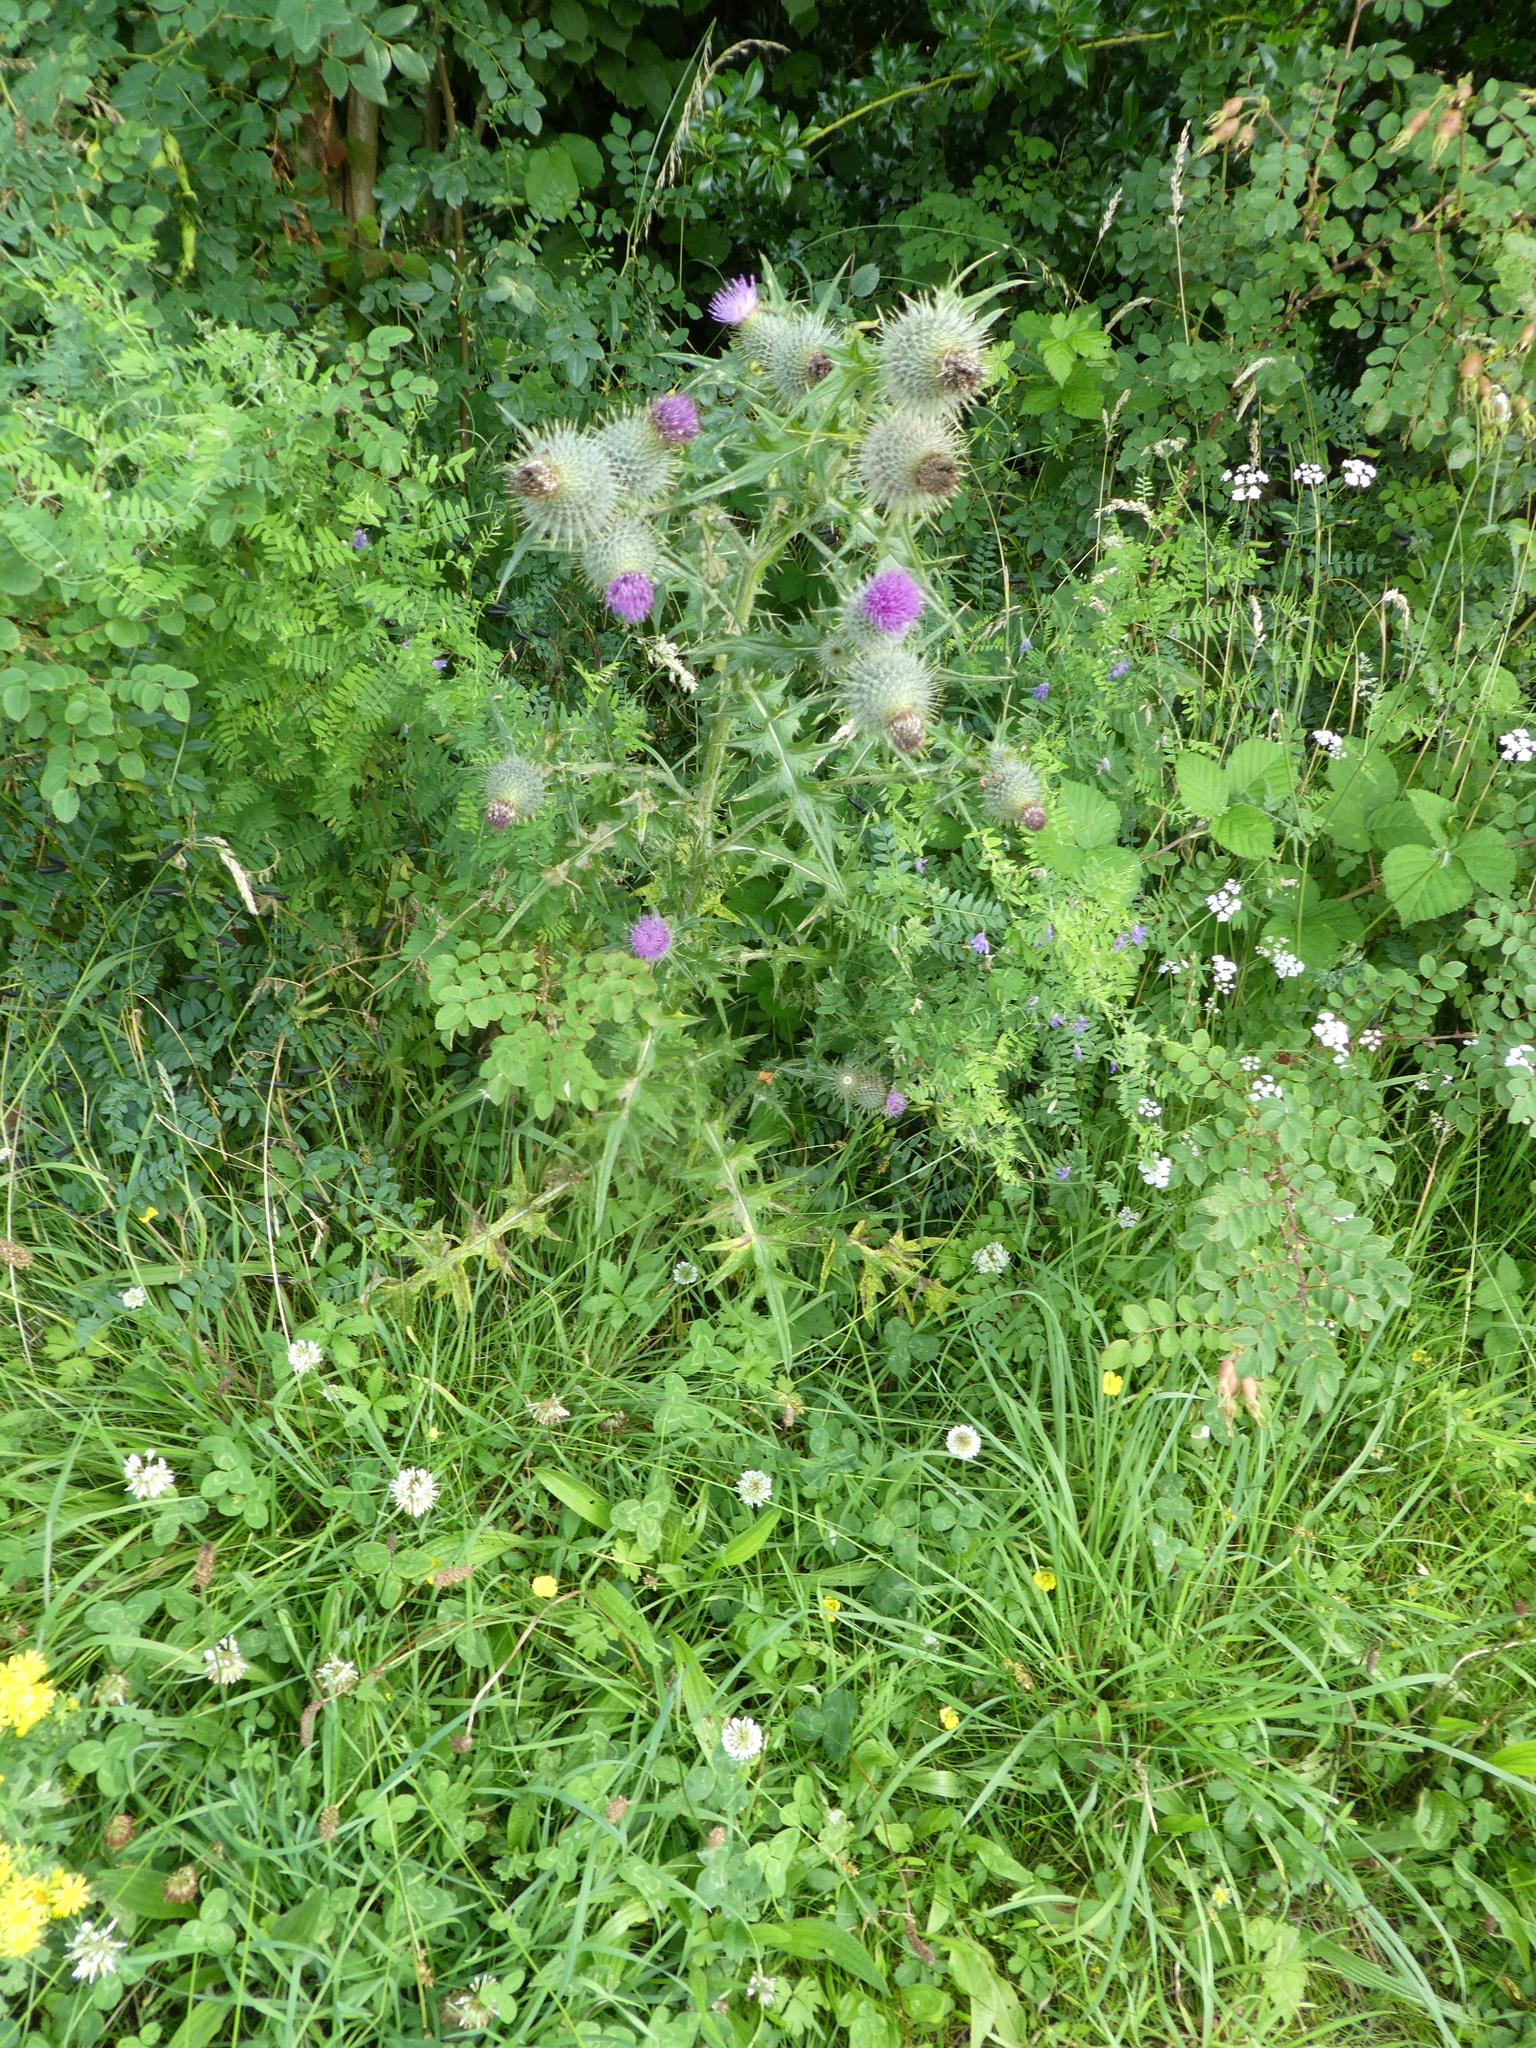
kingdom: Plantae
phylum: Tracheophyta
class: Magnoliopsida
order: Asterales
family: Asteraceae
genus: Cirsium
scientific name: Cirsium vulgare
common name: Bull thistle
